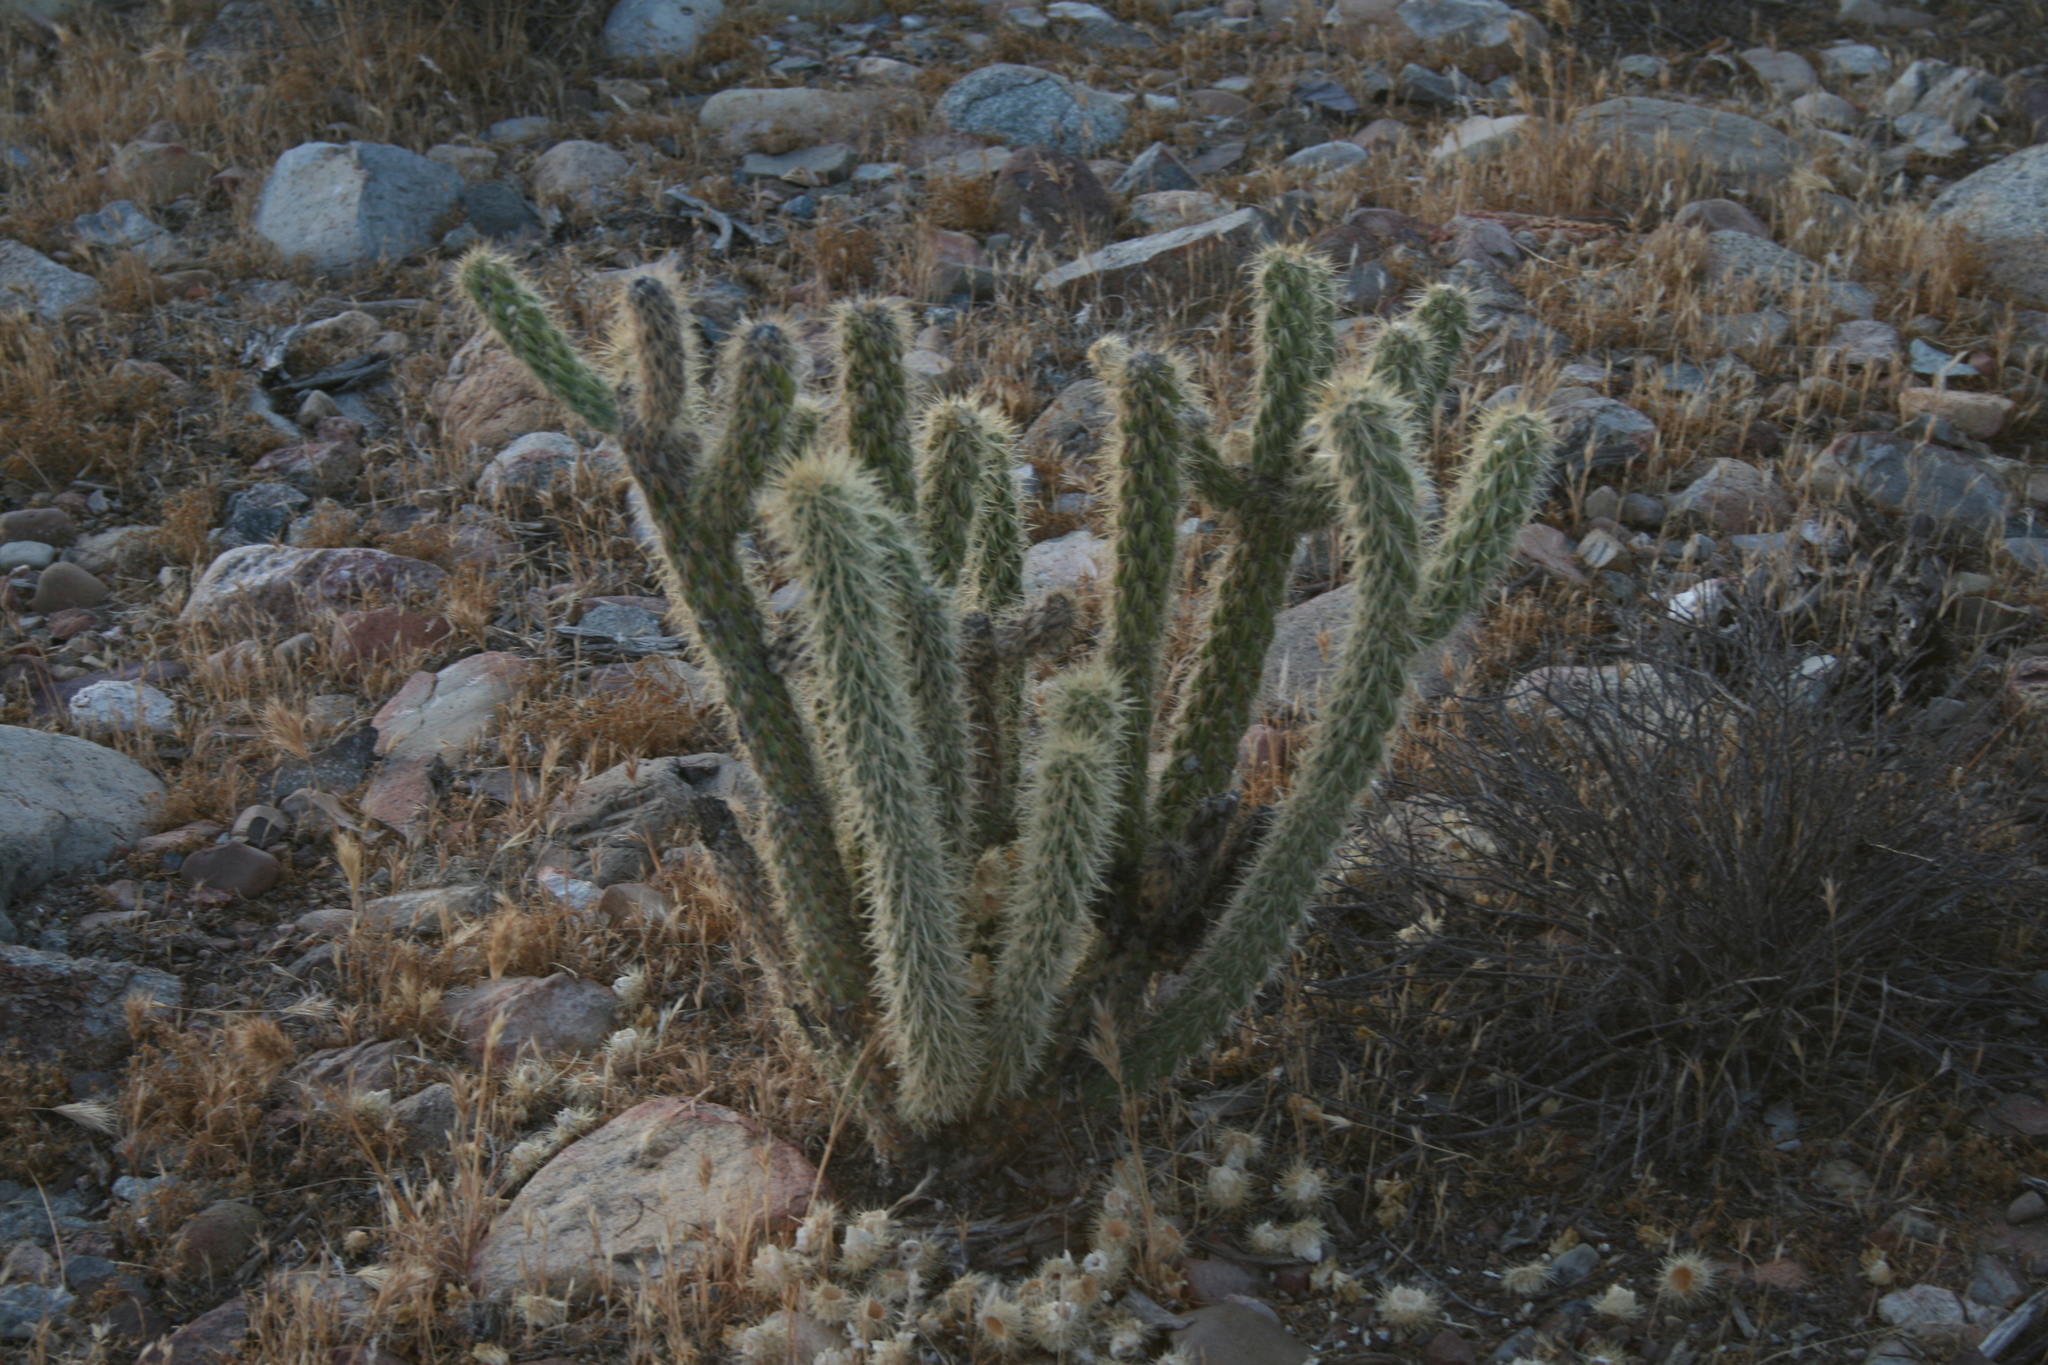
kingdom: Plantae
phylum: Tracheophyta
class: Magnoliopsida
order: Caryophyllales
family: Cactaceae
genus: Cylindropuntia
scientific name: Cylindropuntia wolfii
